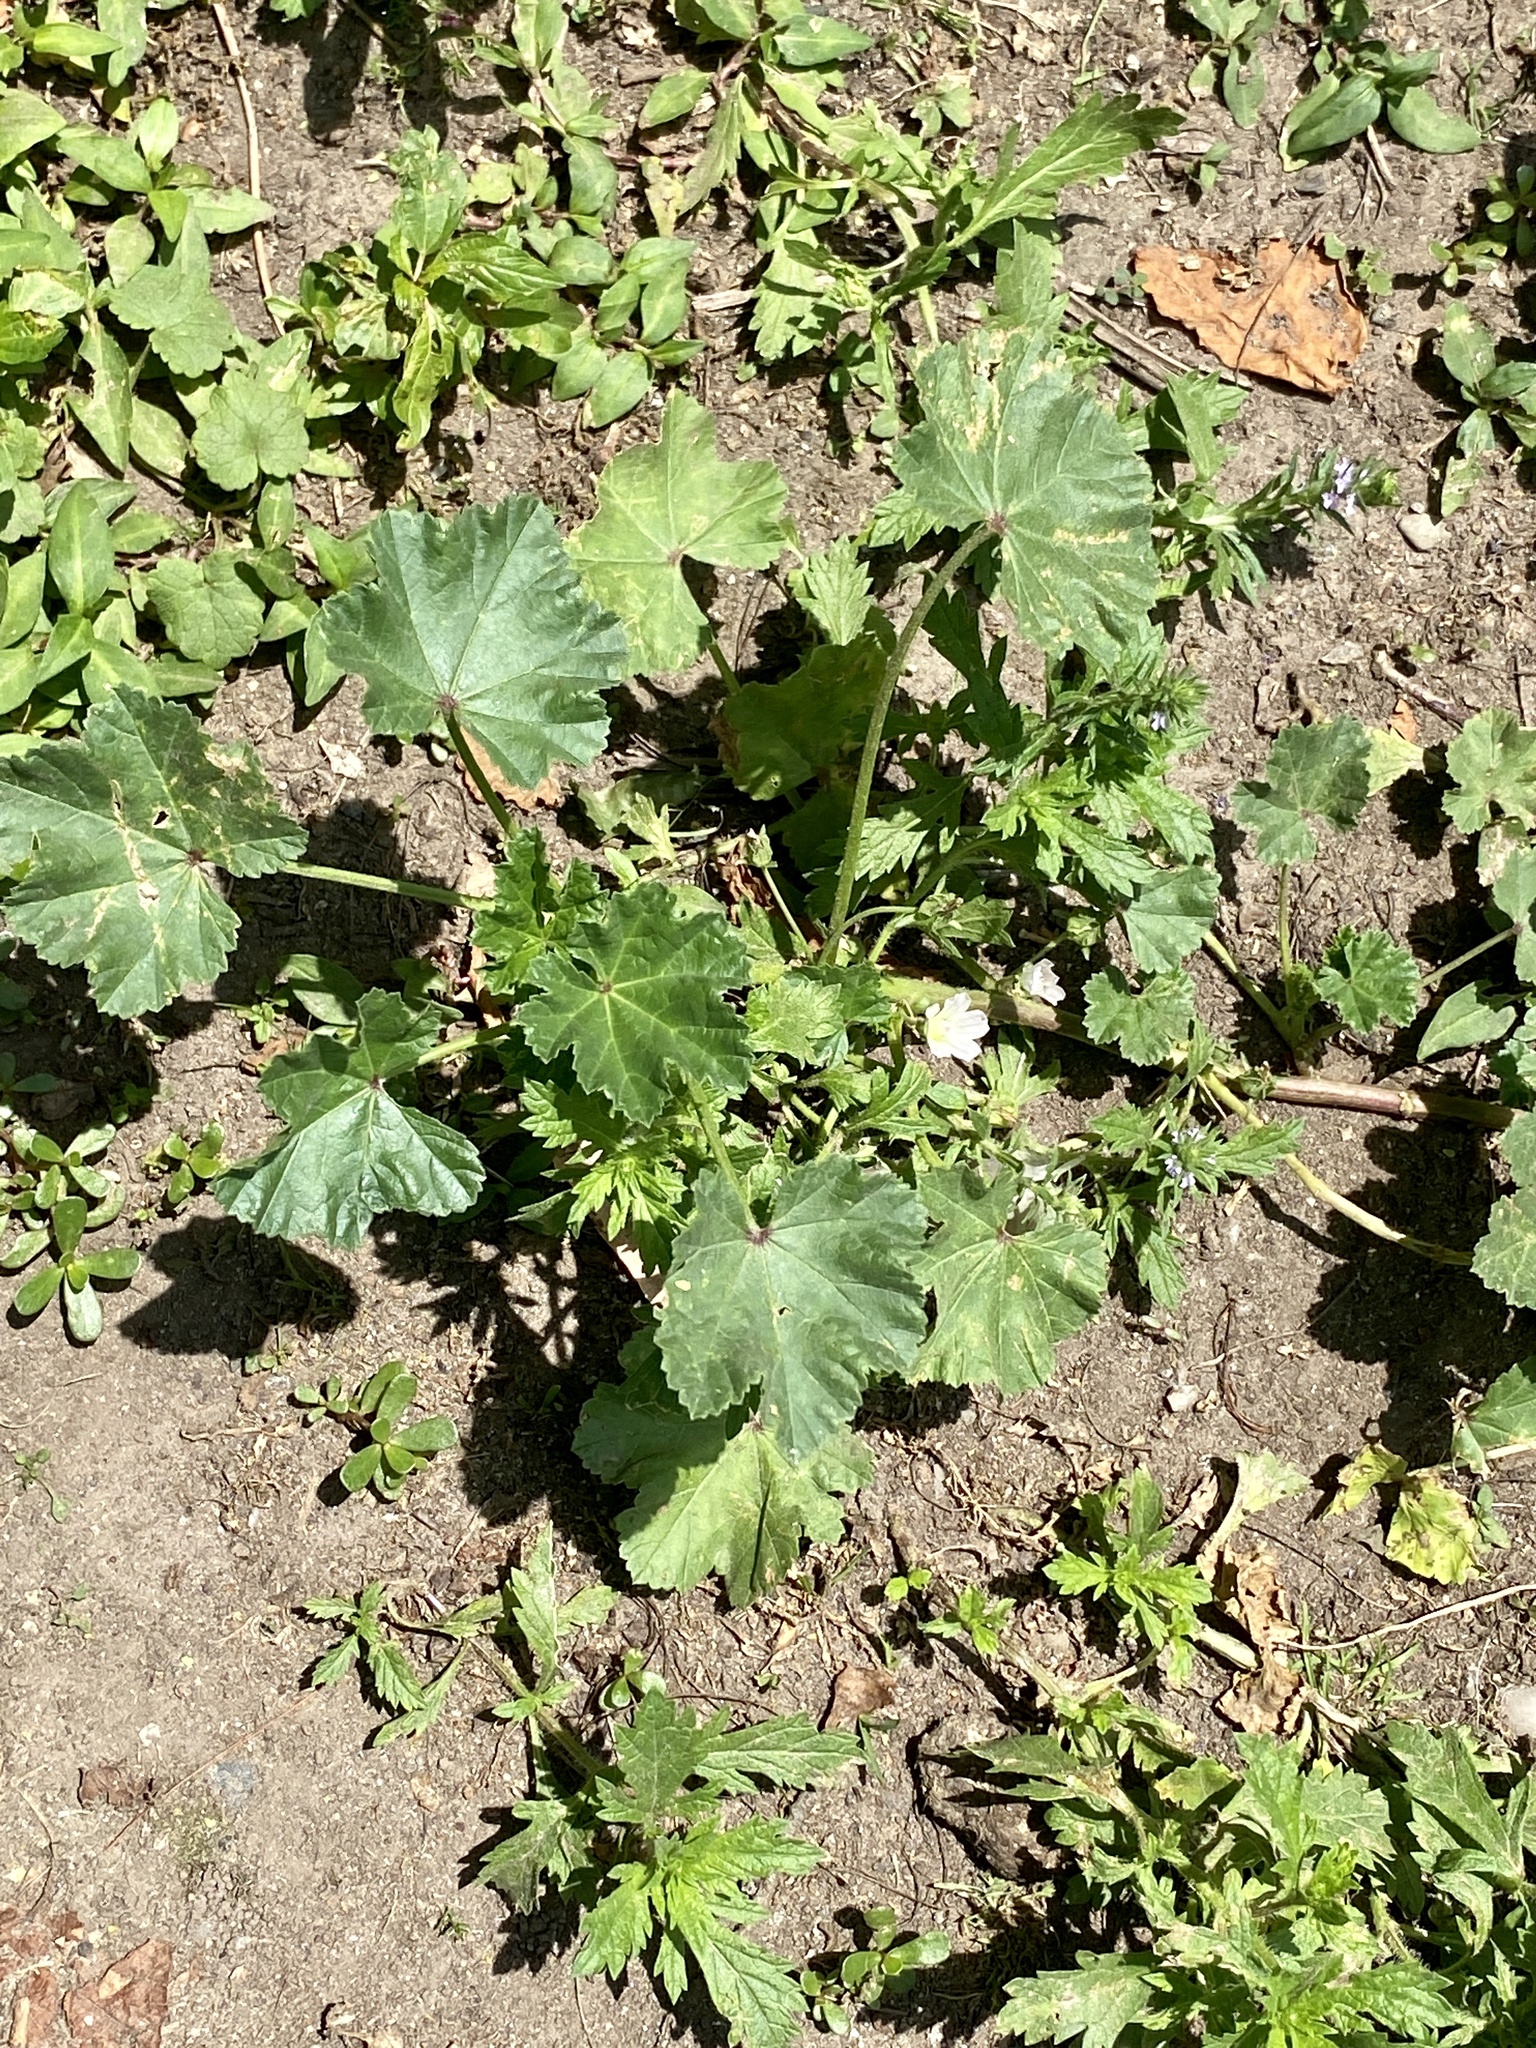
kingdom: Plantae
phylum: Tracheophyta
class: Magnoliopsida
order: Malvales
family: Malvaceae
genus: Malva
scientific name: Malva neglecta
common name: Common mallow
